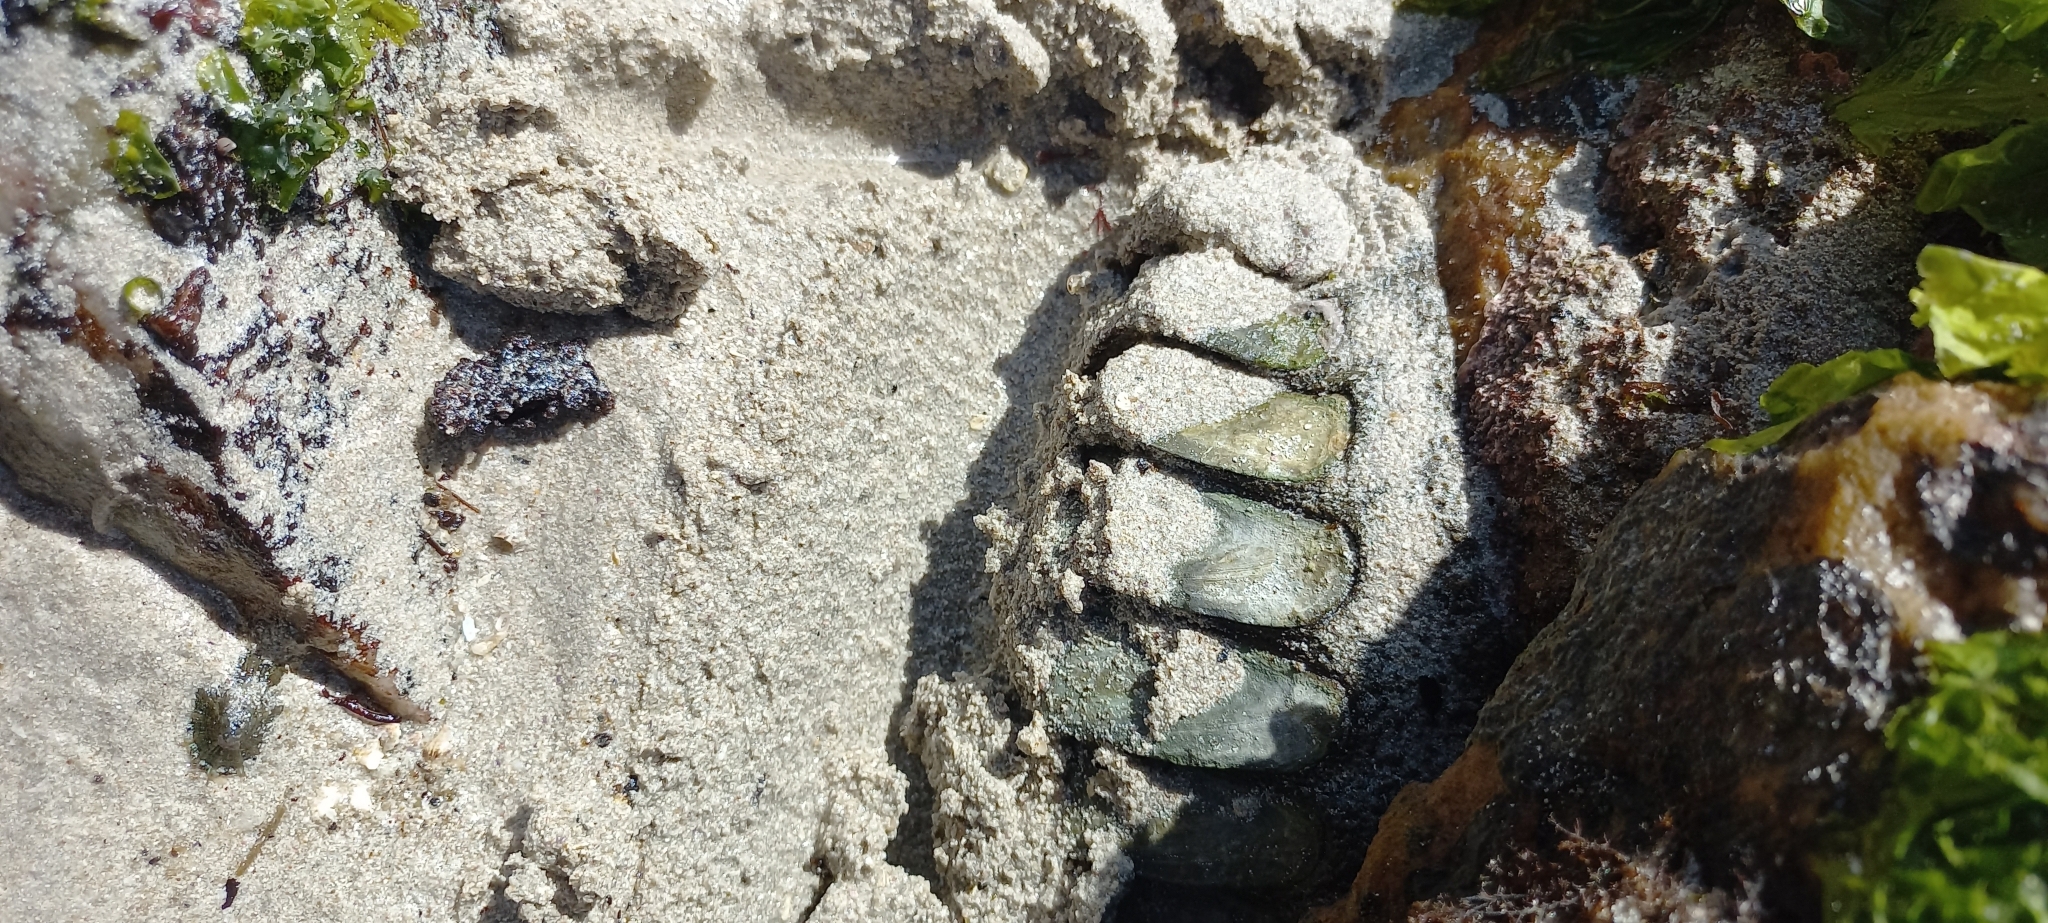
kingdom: Animalia
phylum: Mollusca
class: Polyplacophora
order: Chitonida
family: Chaetopleuridae
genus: Dinoplax
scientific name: Dinoplax gigas
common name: Armadillo
